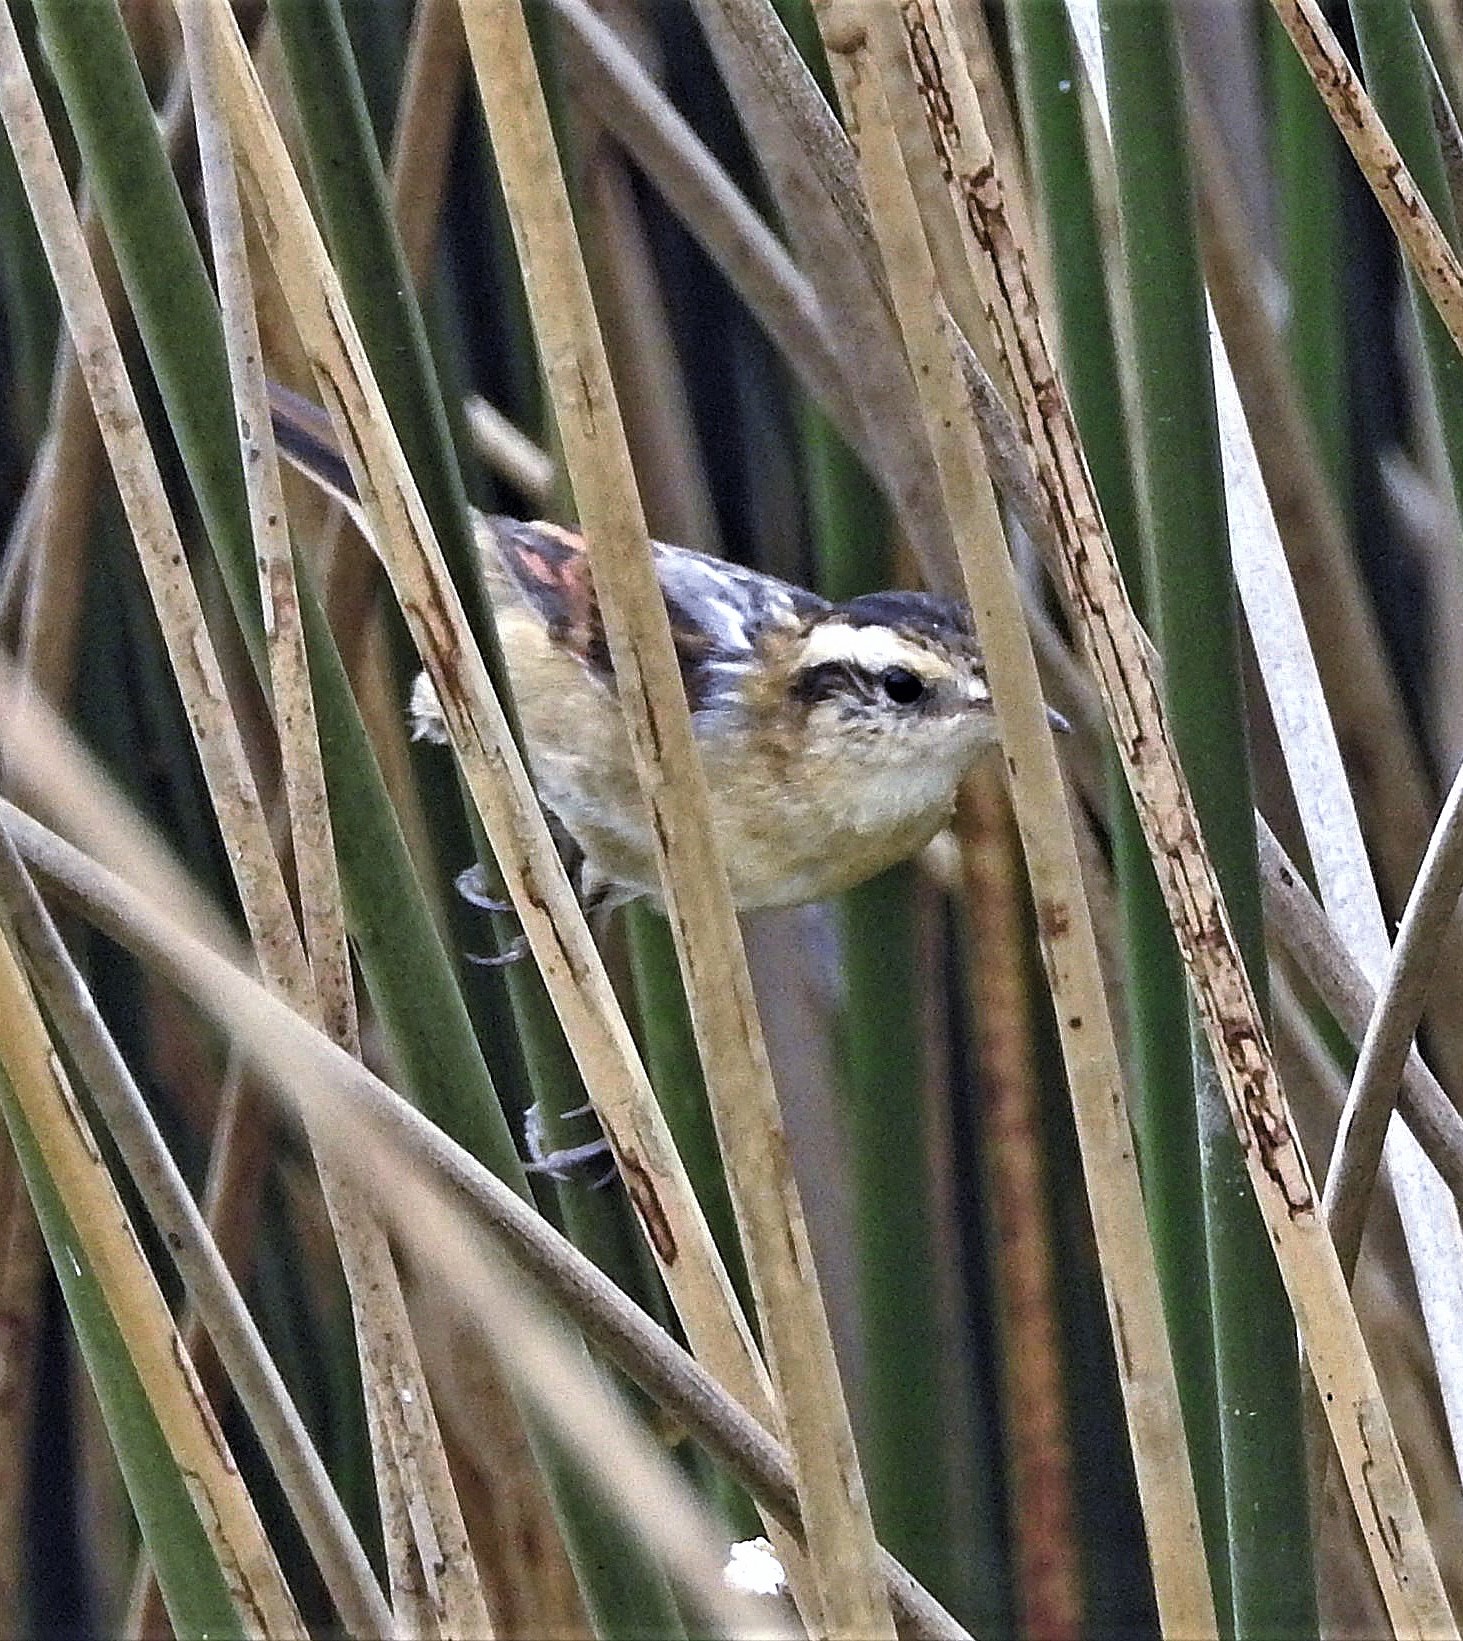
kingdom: Animalia
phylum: Chordata
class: Aves
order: Passeriformes
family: Furnariidae
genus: Phleocryptes
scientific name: Phleocryptes melanops
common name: Wren-like rushbird
